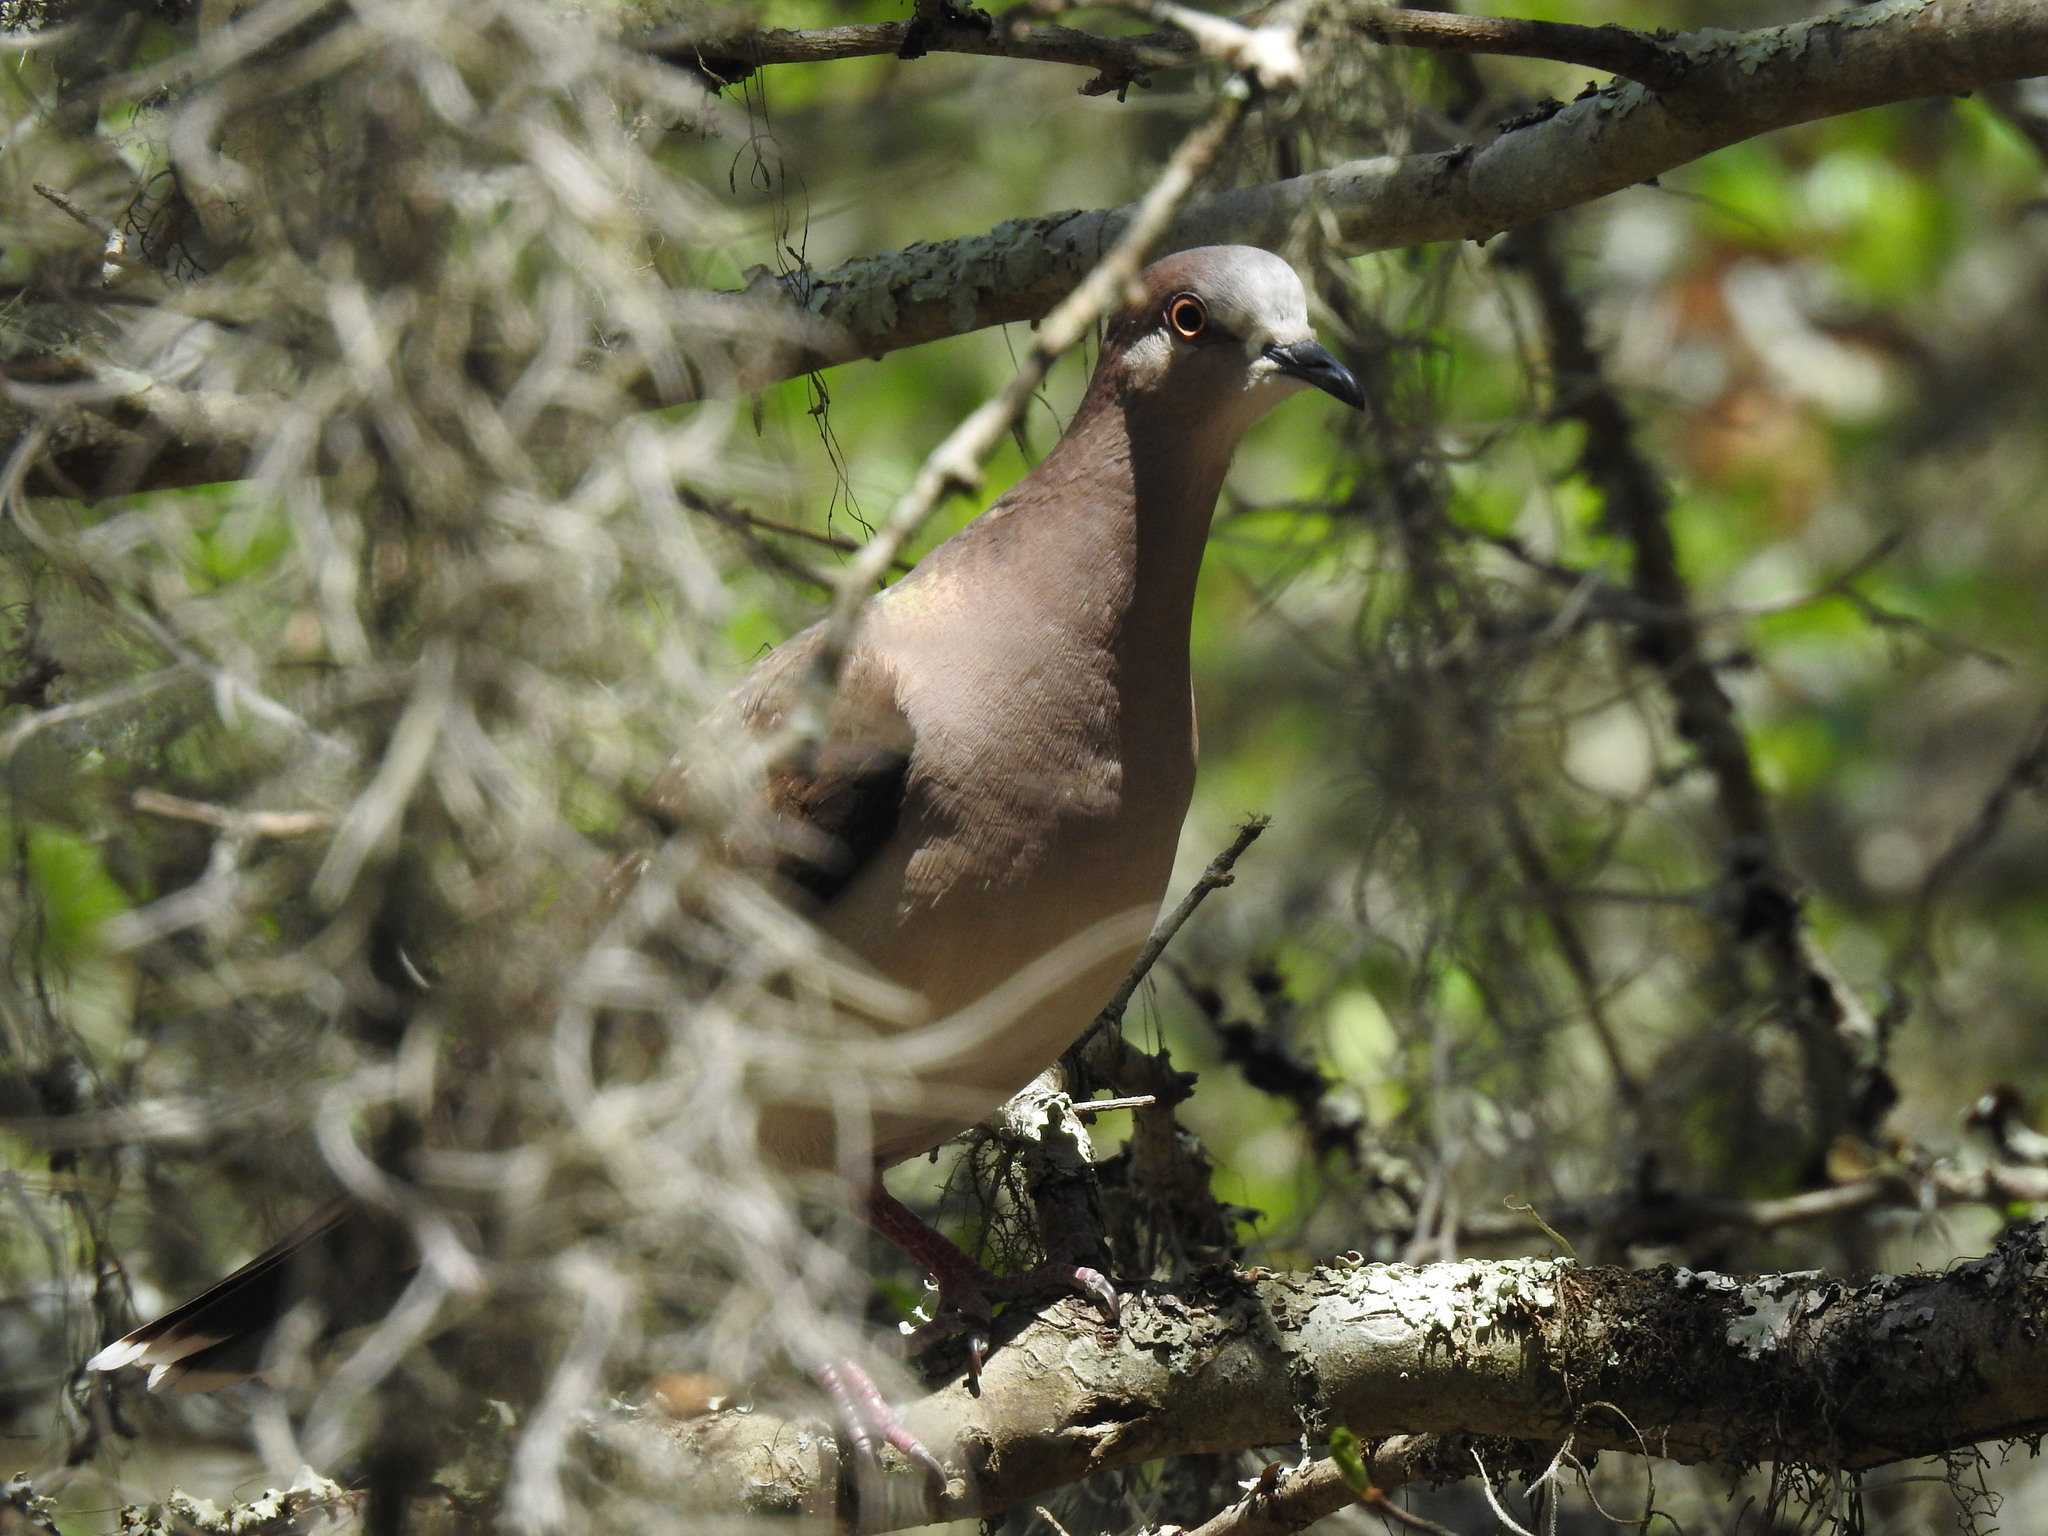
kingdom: Animalia
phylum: Chordata
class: Aves
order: Columbiformes
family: Columbidae
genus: Leptotila
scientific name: Leptotila verreauxi
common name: White-tipped dove
